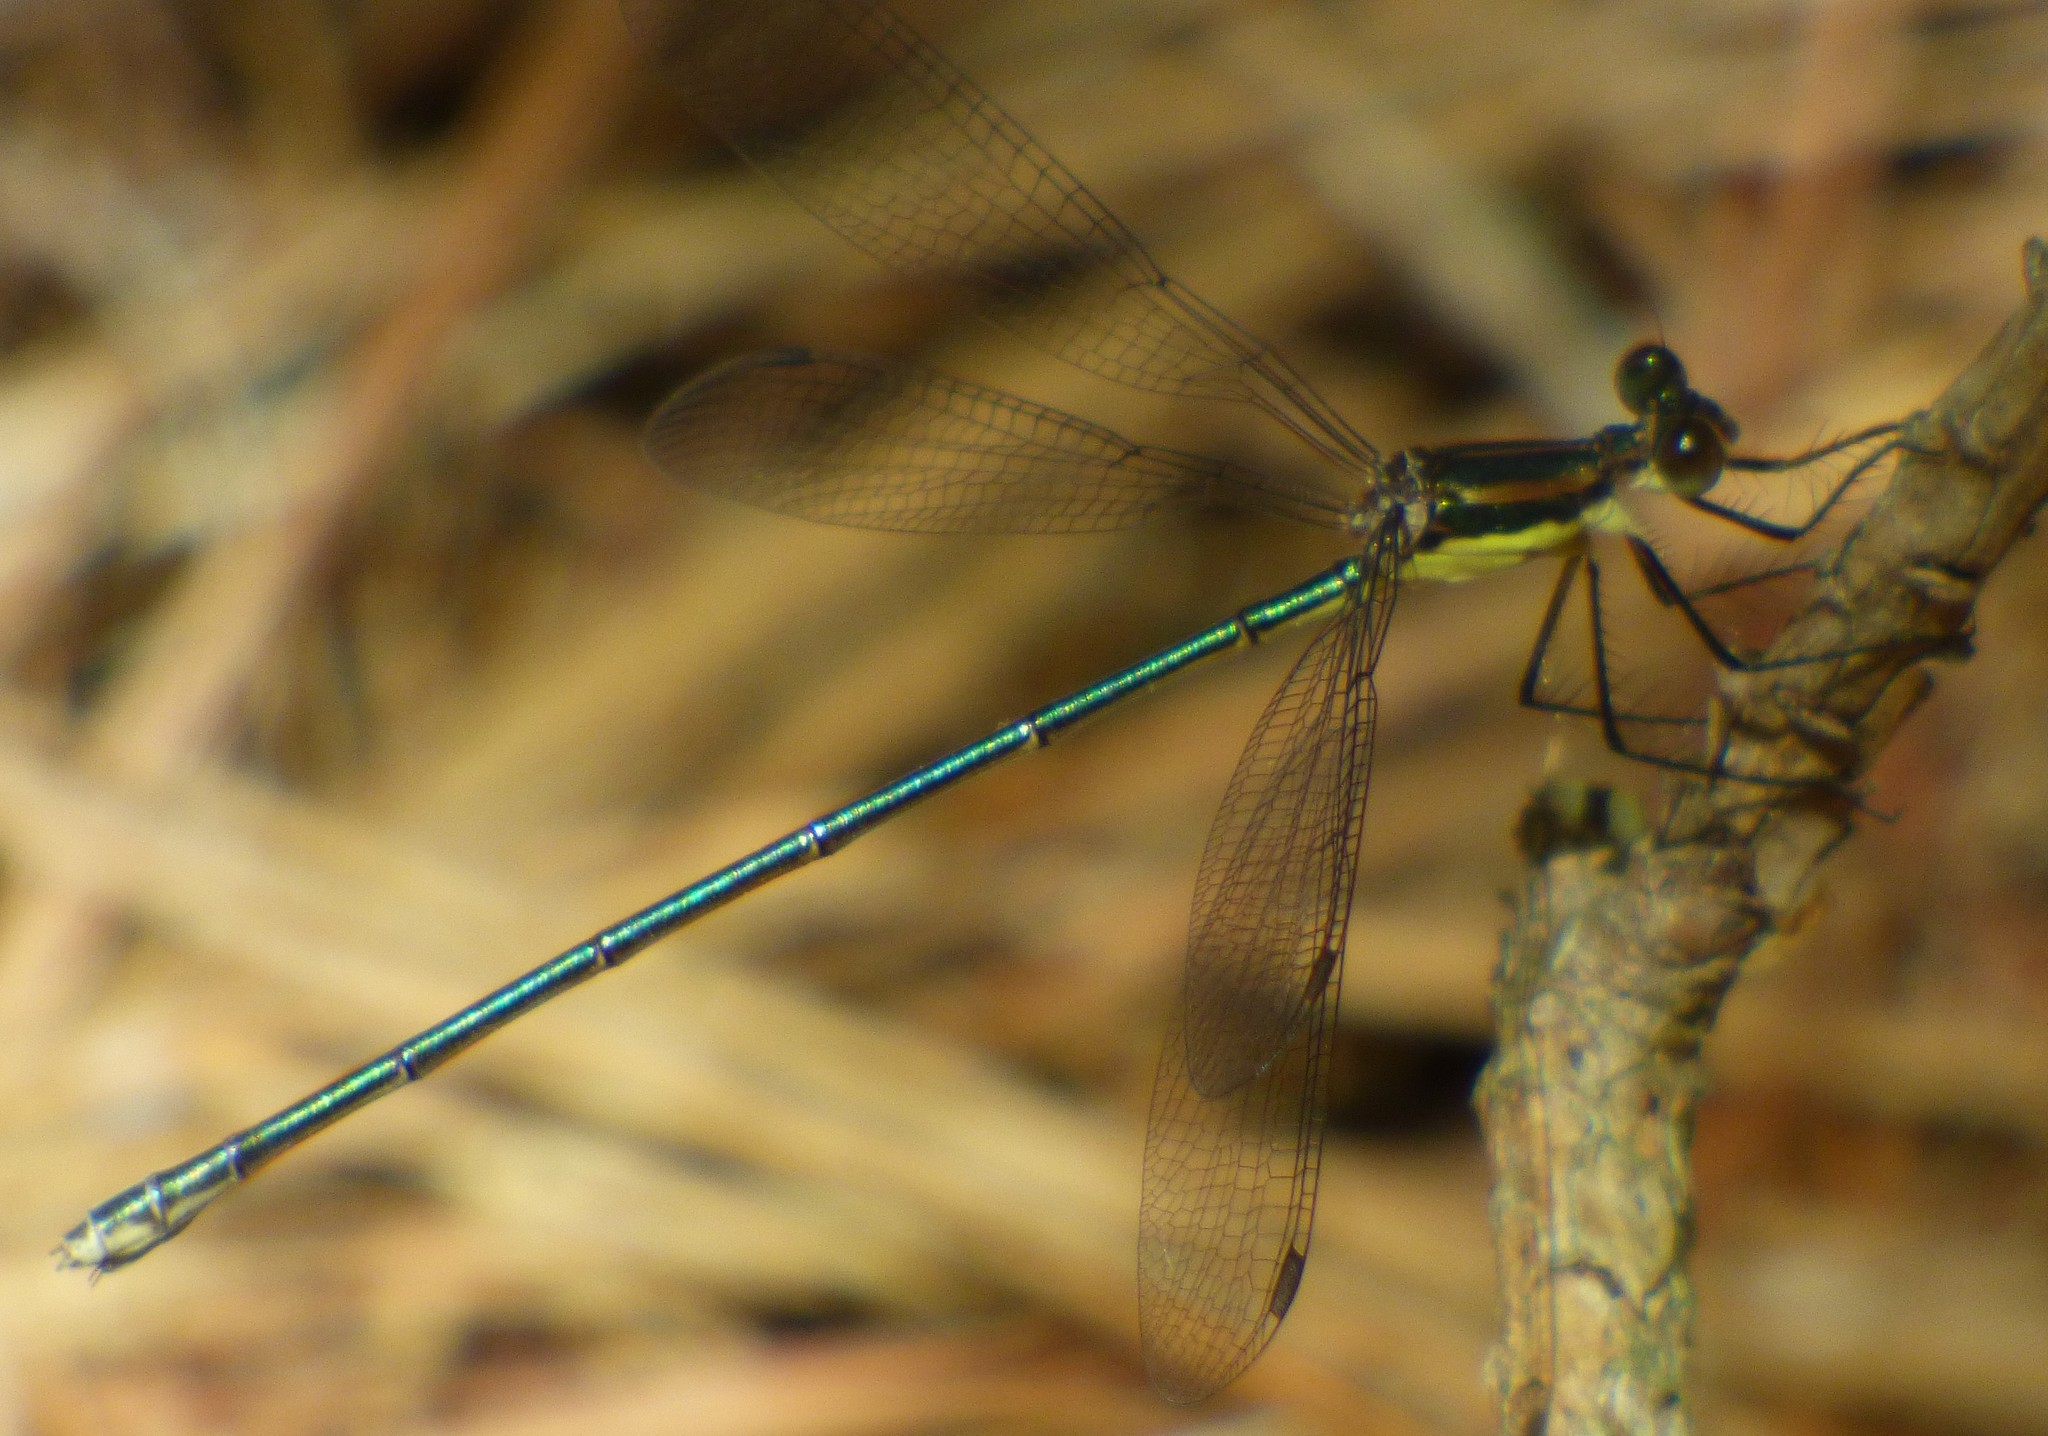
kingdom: Animalia
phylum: Arthropoda
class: Insecta
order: Odonata
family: Lestidae
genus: Lestes
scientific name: Lestes vigilax
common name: Swamp spreadwing
